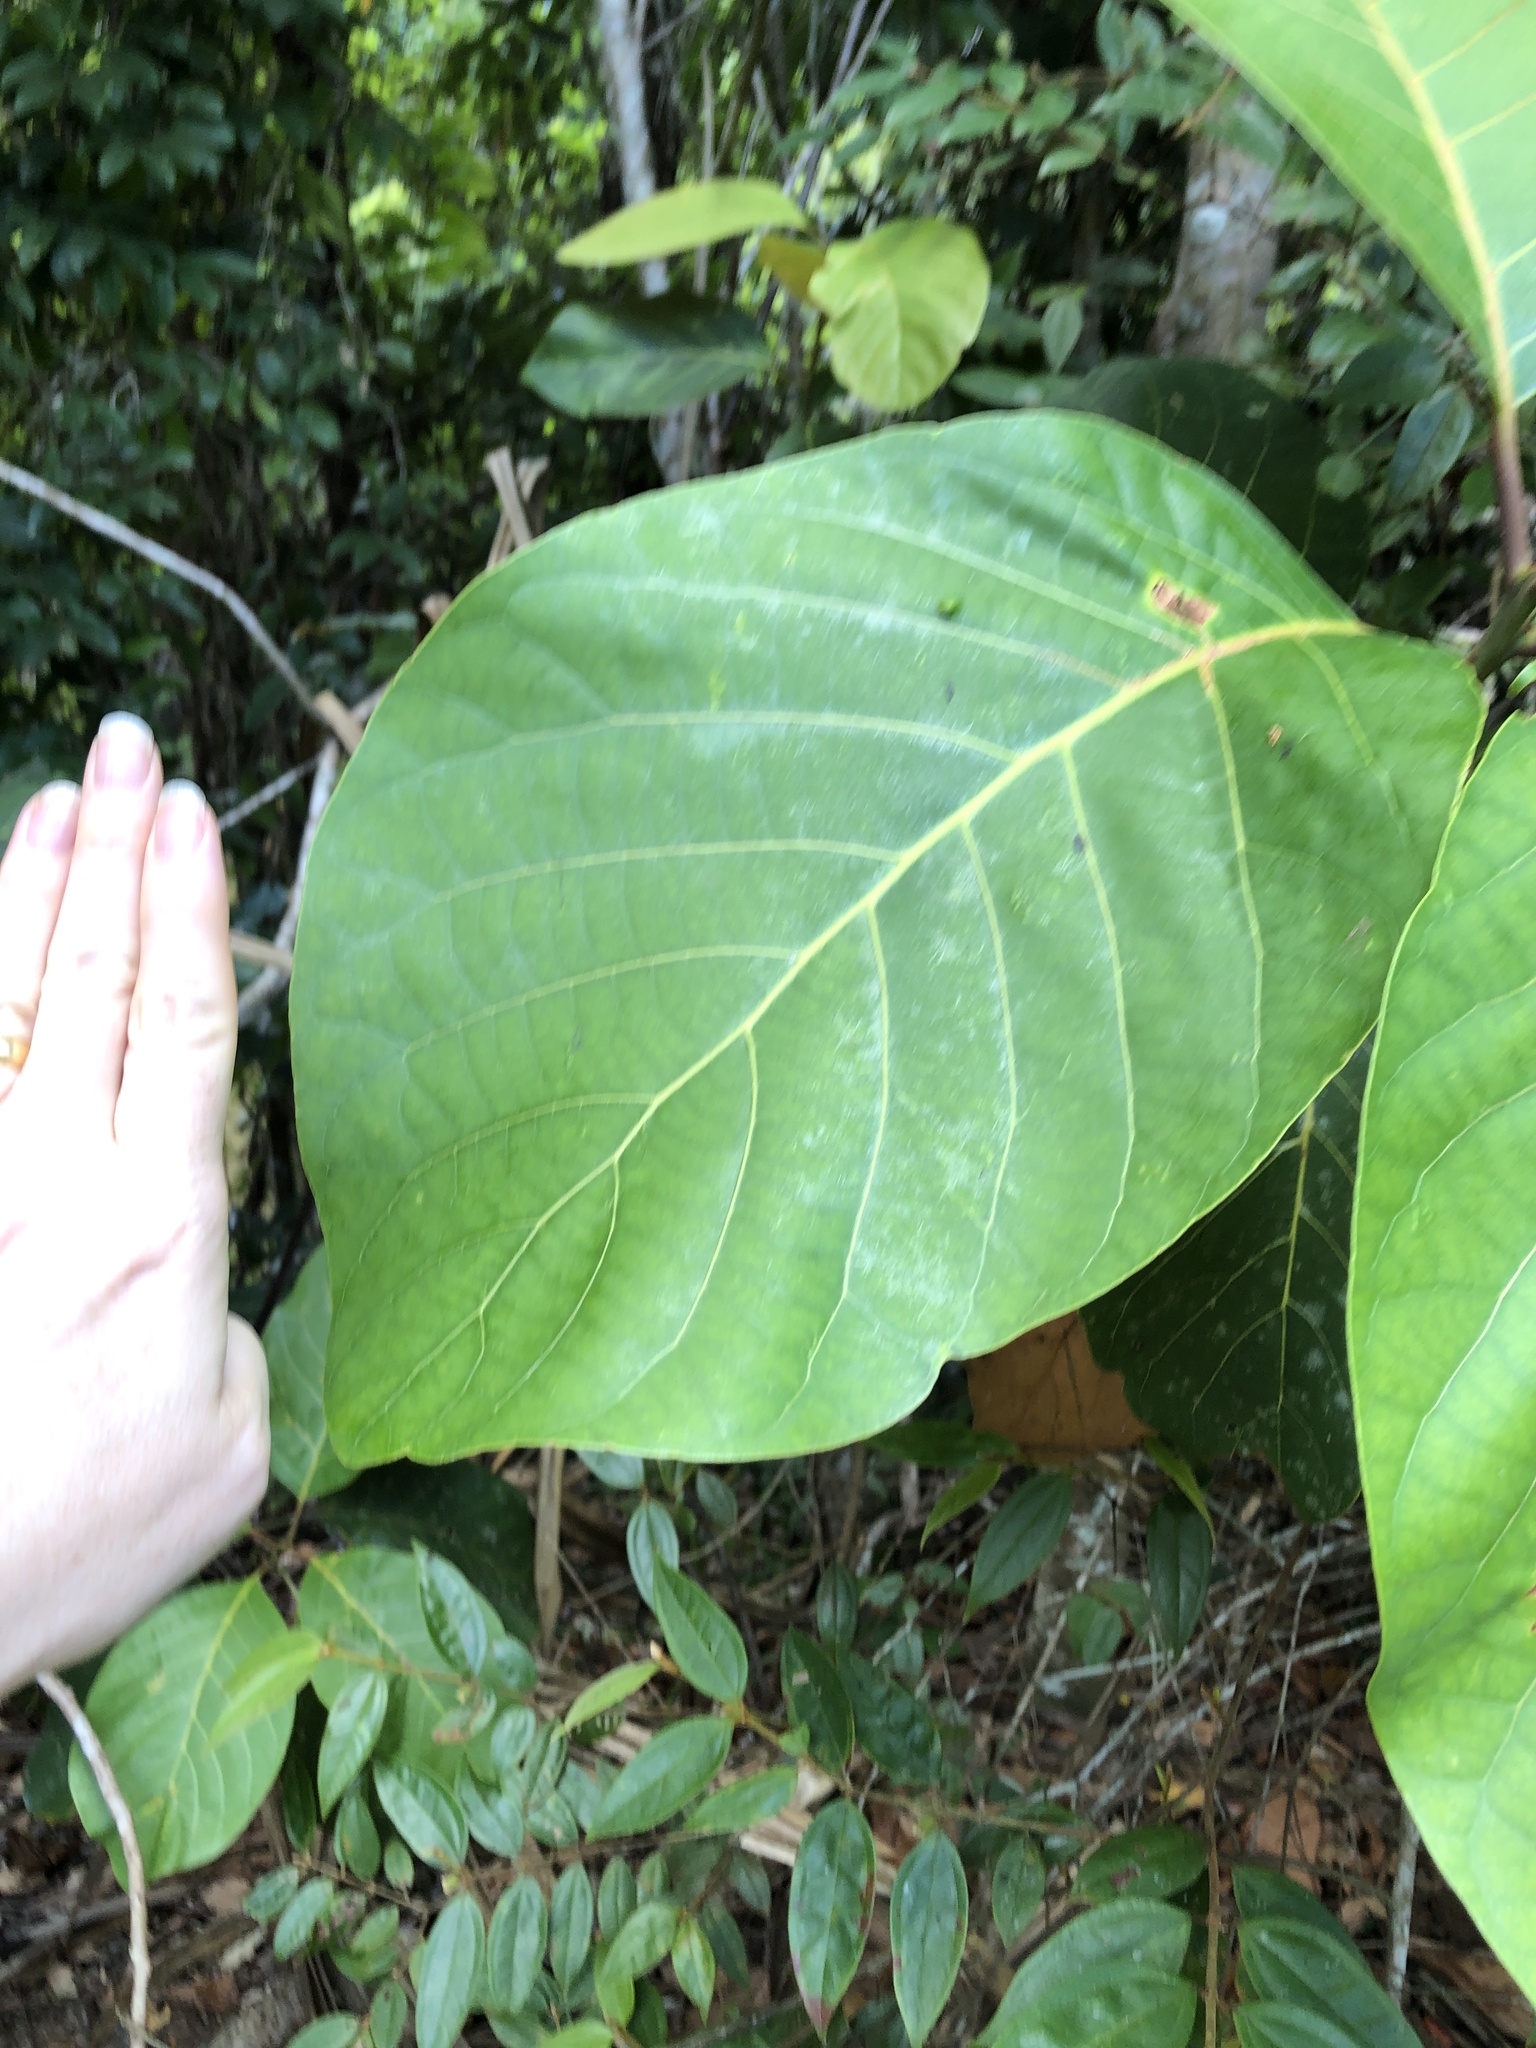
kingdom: Plantae
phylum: Tracheophyta
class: Magnoliopsida
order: Laurales
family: Lauraceae
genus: Litsea
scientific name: Litsea bindoniana
